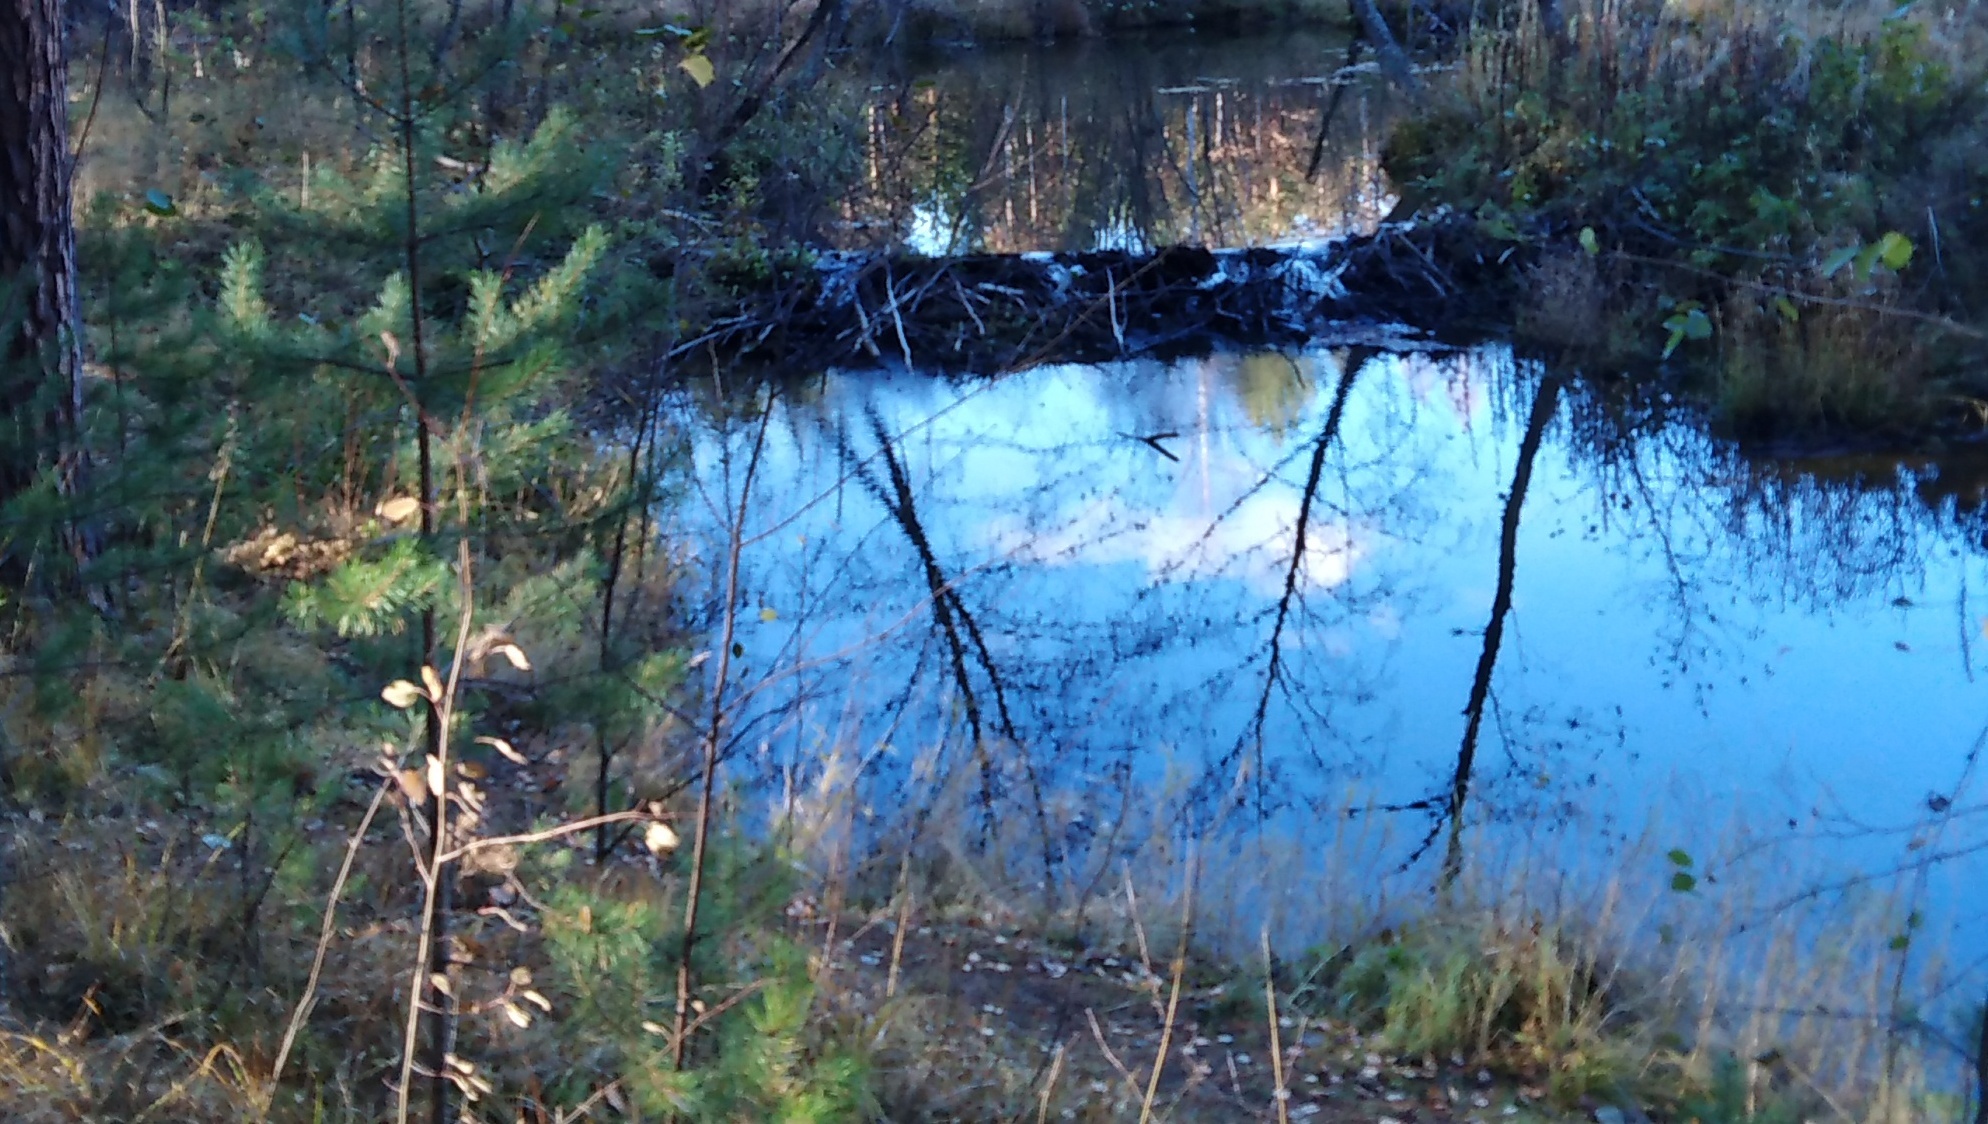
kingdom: Animalia
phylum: Chordata
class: Mammalia
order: Rodentia
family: Castoridae
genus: Castor
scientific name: Castor fiber
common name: Eurasian beaver
